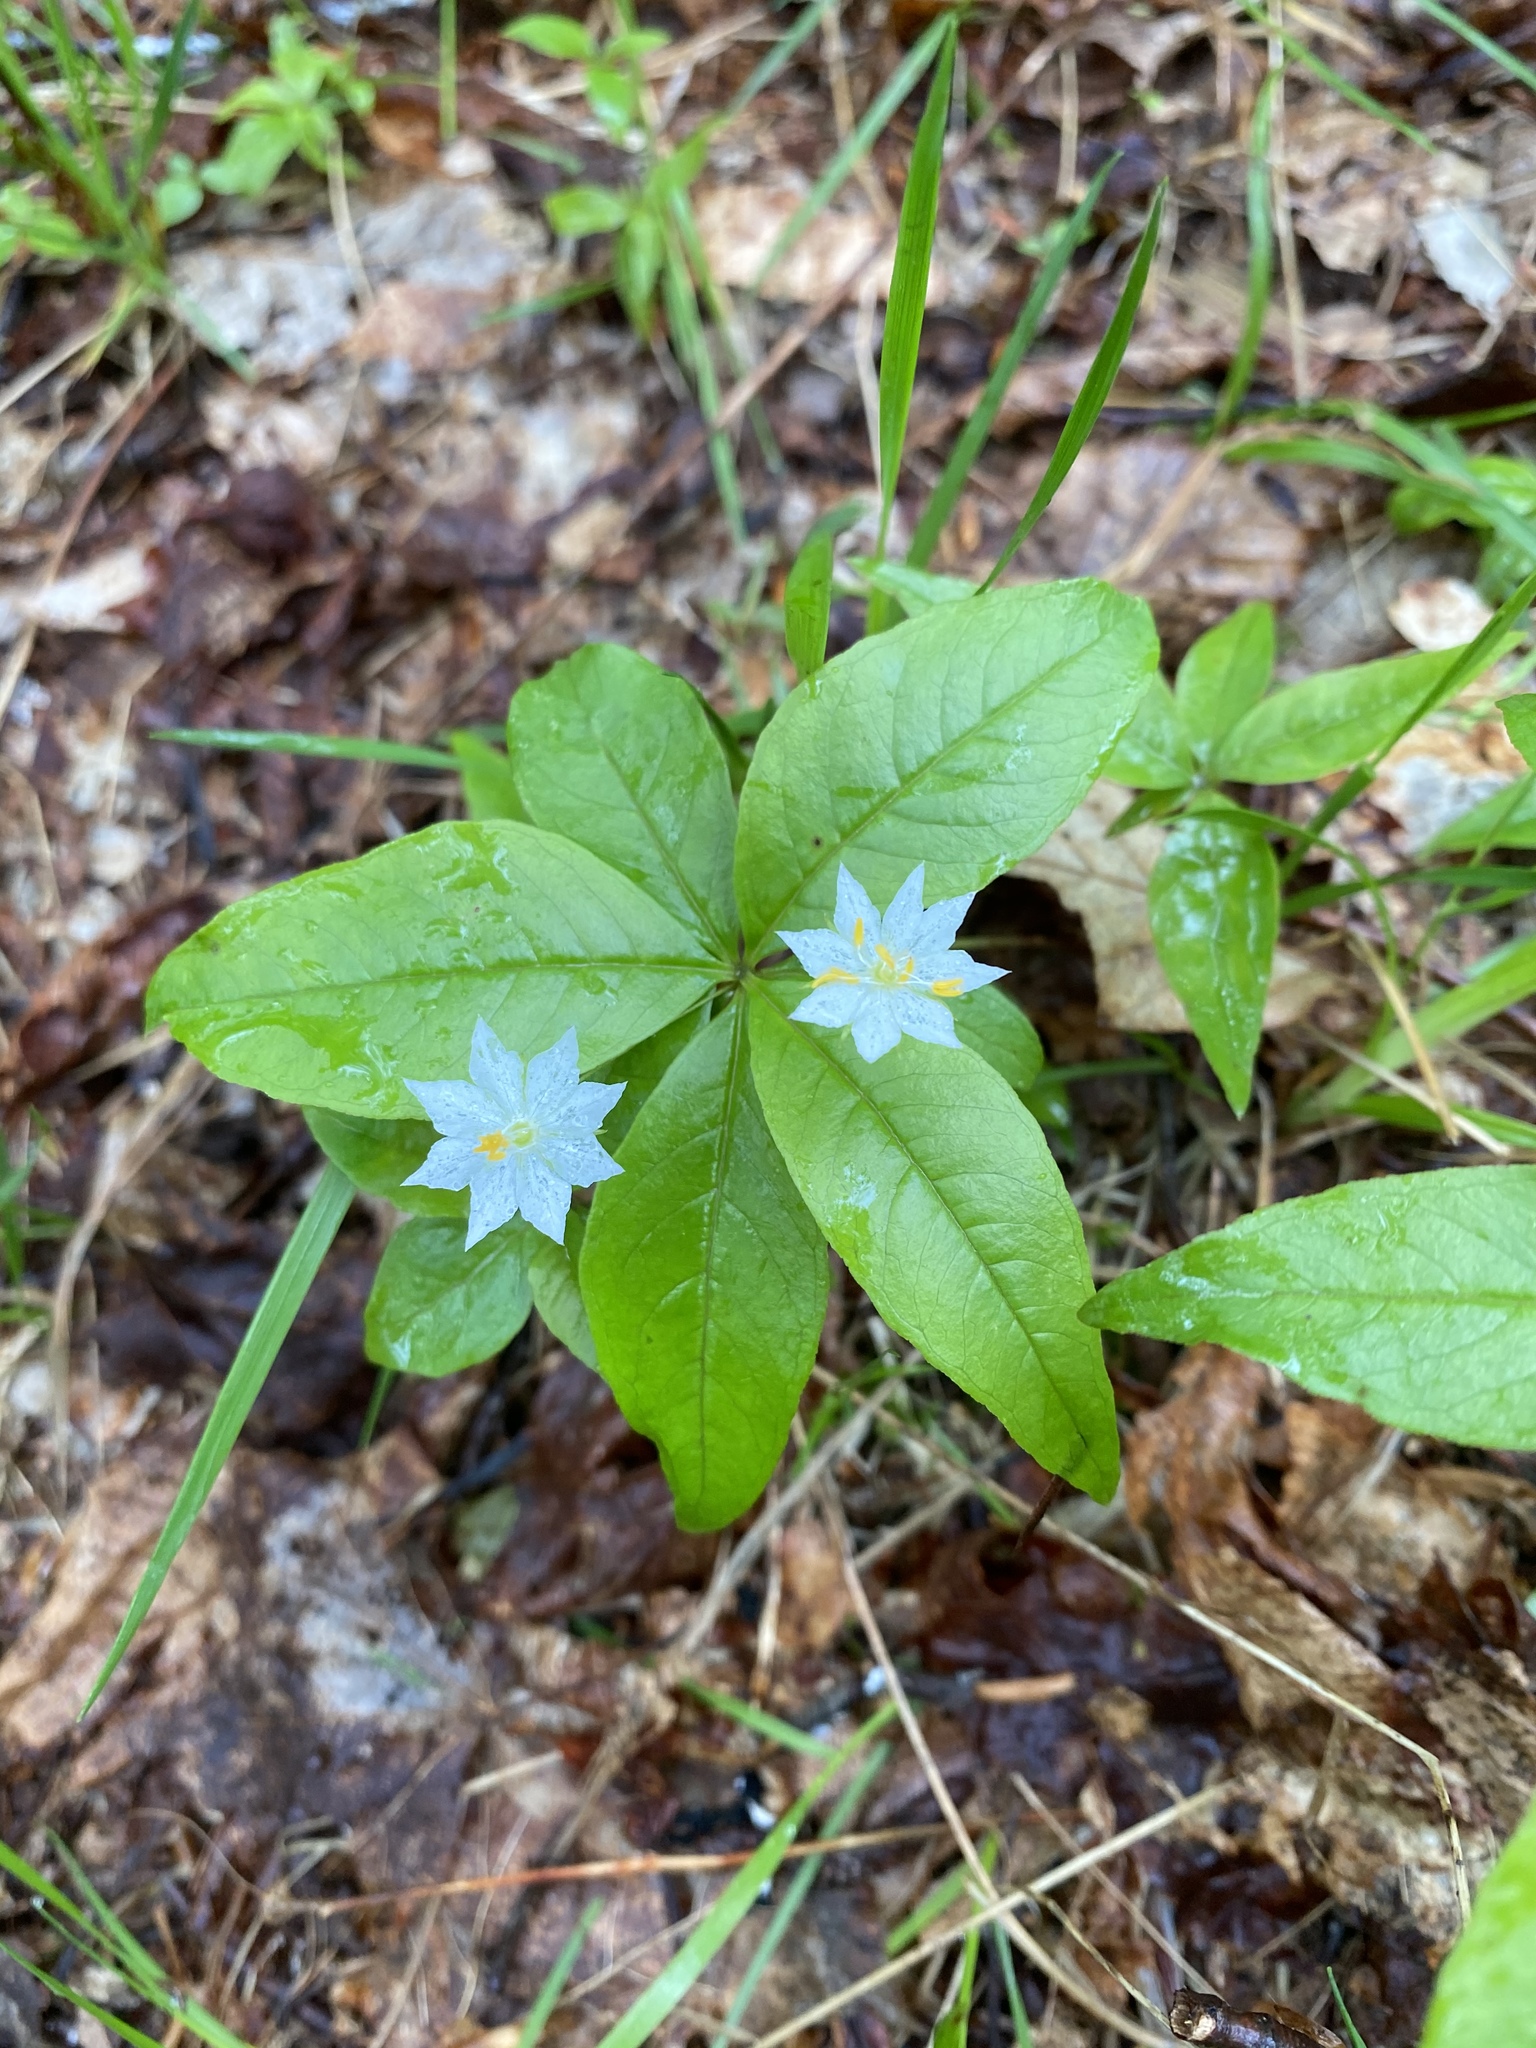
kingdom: Plantae
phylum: Tracheophyta
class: Magnoliopsida
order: Ericales
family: Primulaceae
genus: Lysimachia
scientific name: Lysimachia borealis
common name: American starflower
